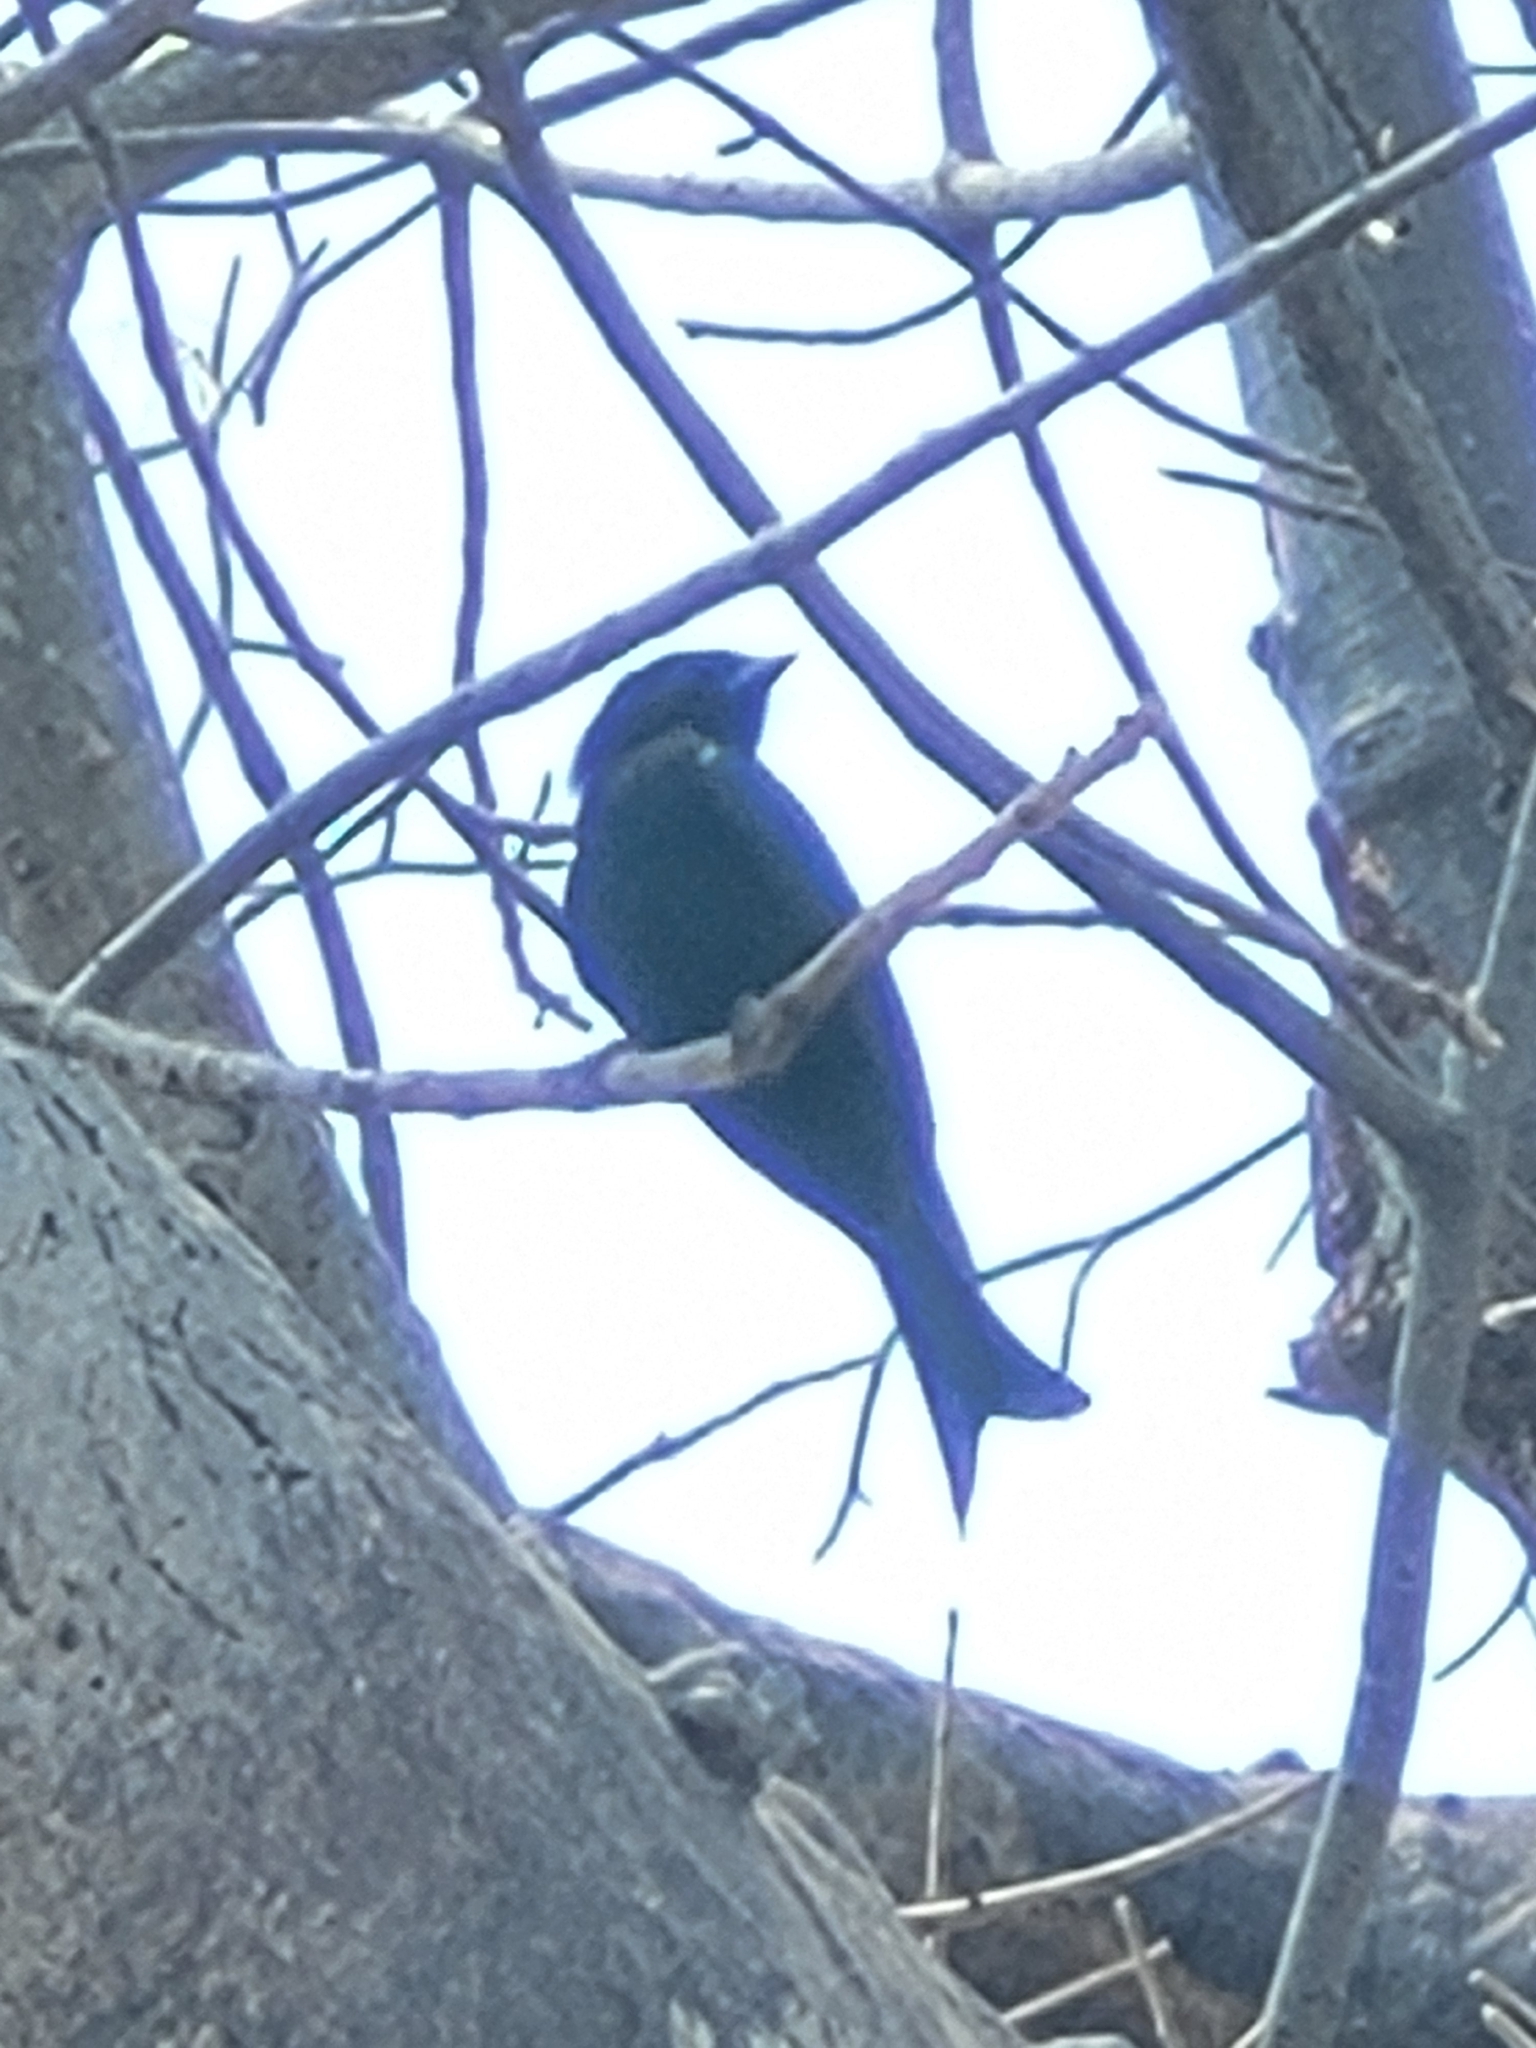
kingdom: Animalia
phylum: Chordata
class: Aves
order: Passeriformes
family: Dicruridae
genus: Dicrurus
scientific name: Dicrurus adsimilis
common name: Fork-tailed drongo
